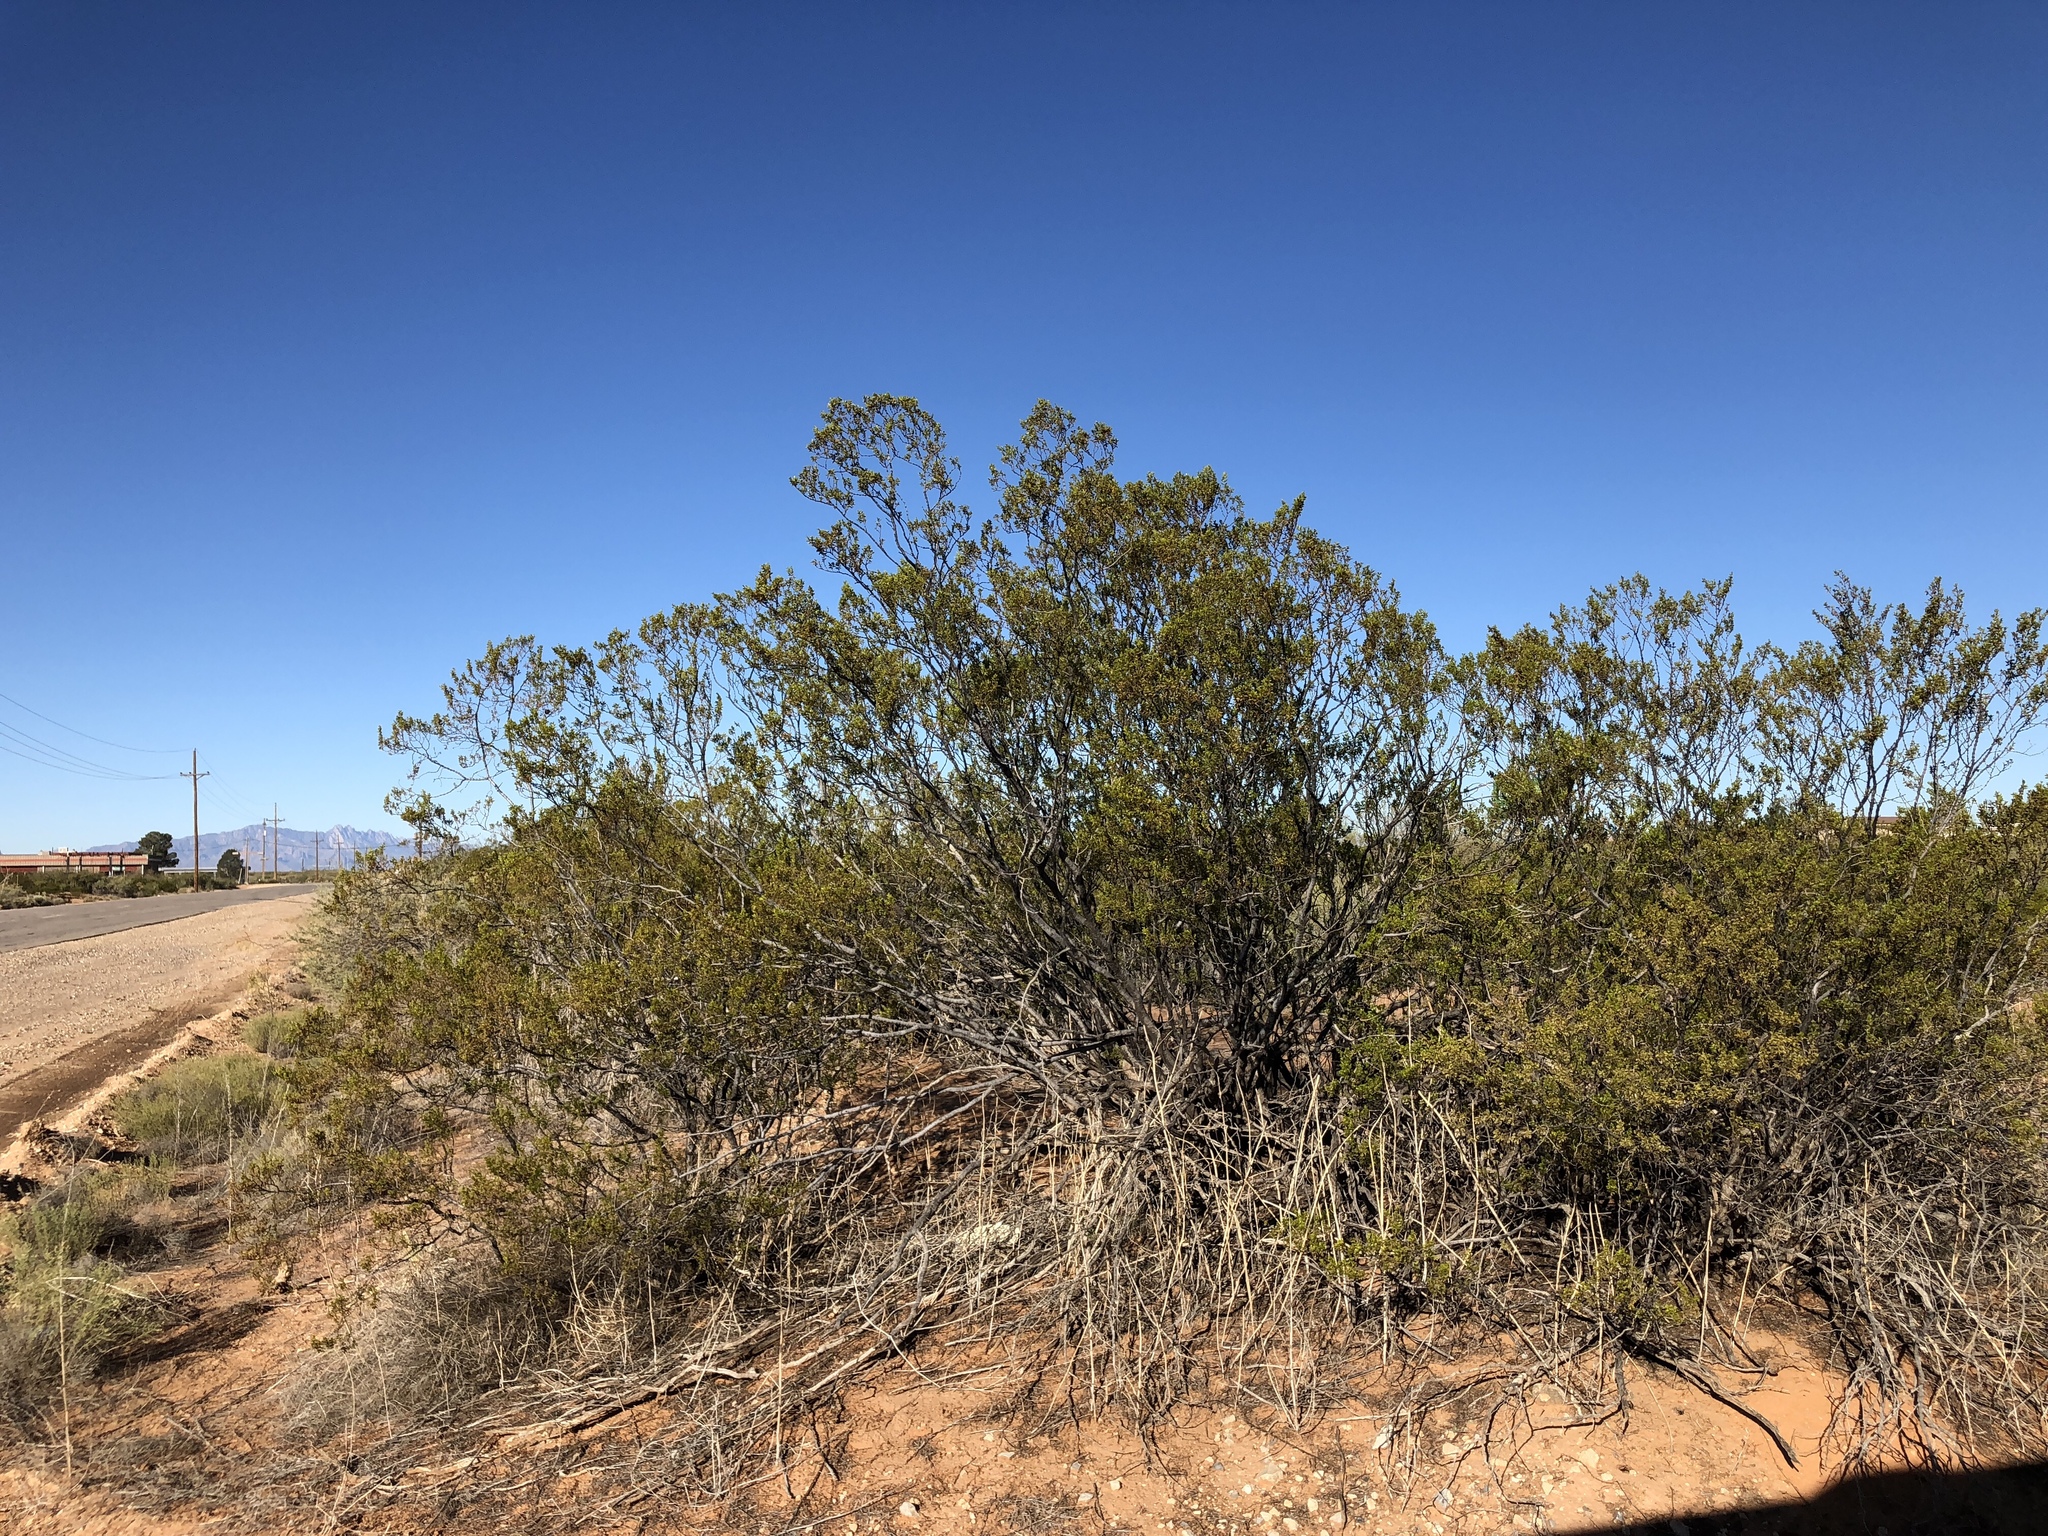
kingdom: Plantae
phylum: Tracheophyta
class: Magnoliopsida
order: Zygophyllales
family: Zygophyllaceae
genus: Larrea
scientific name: Larrea tridentata
